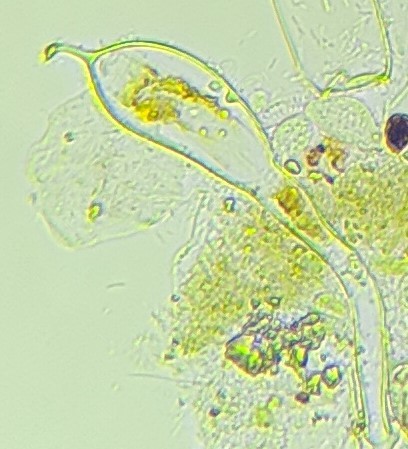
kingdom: Plantae
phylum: Chlorophyta
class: Chlorophyceae
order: Oedogoniales
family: Oedogoniaceae
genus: Oedogonium
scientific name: Oedogonium
